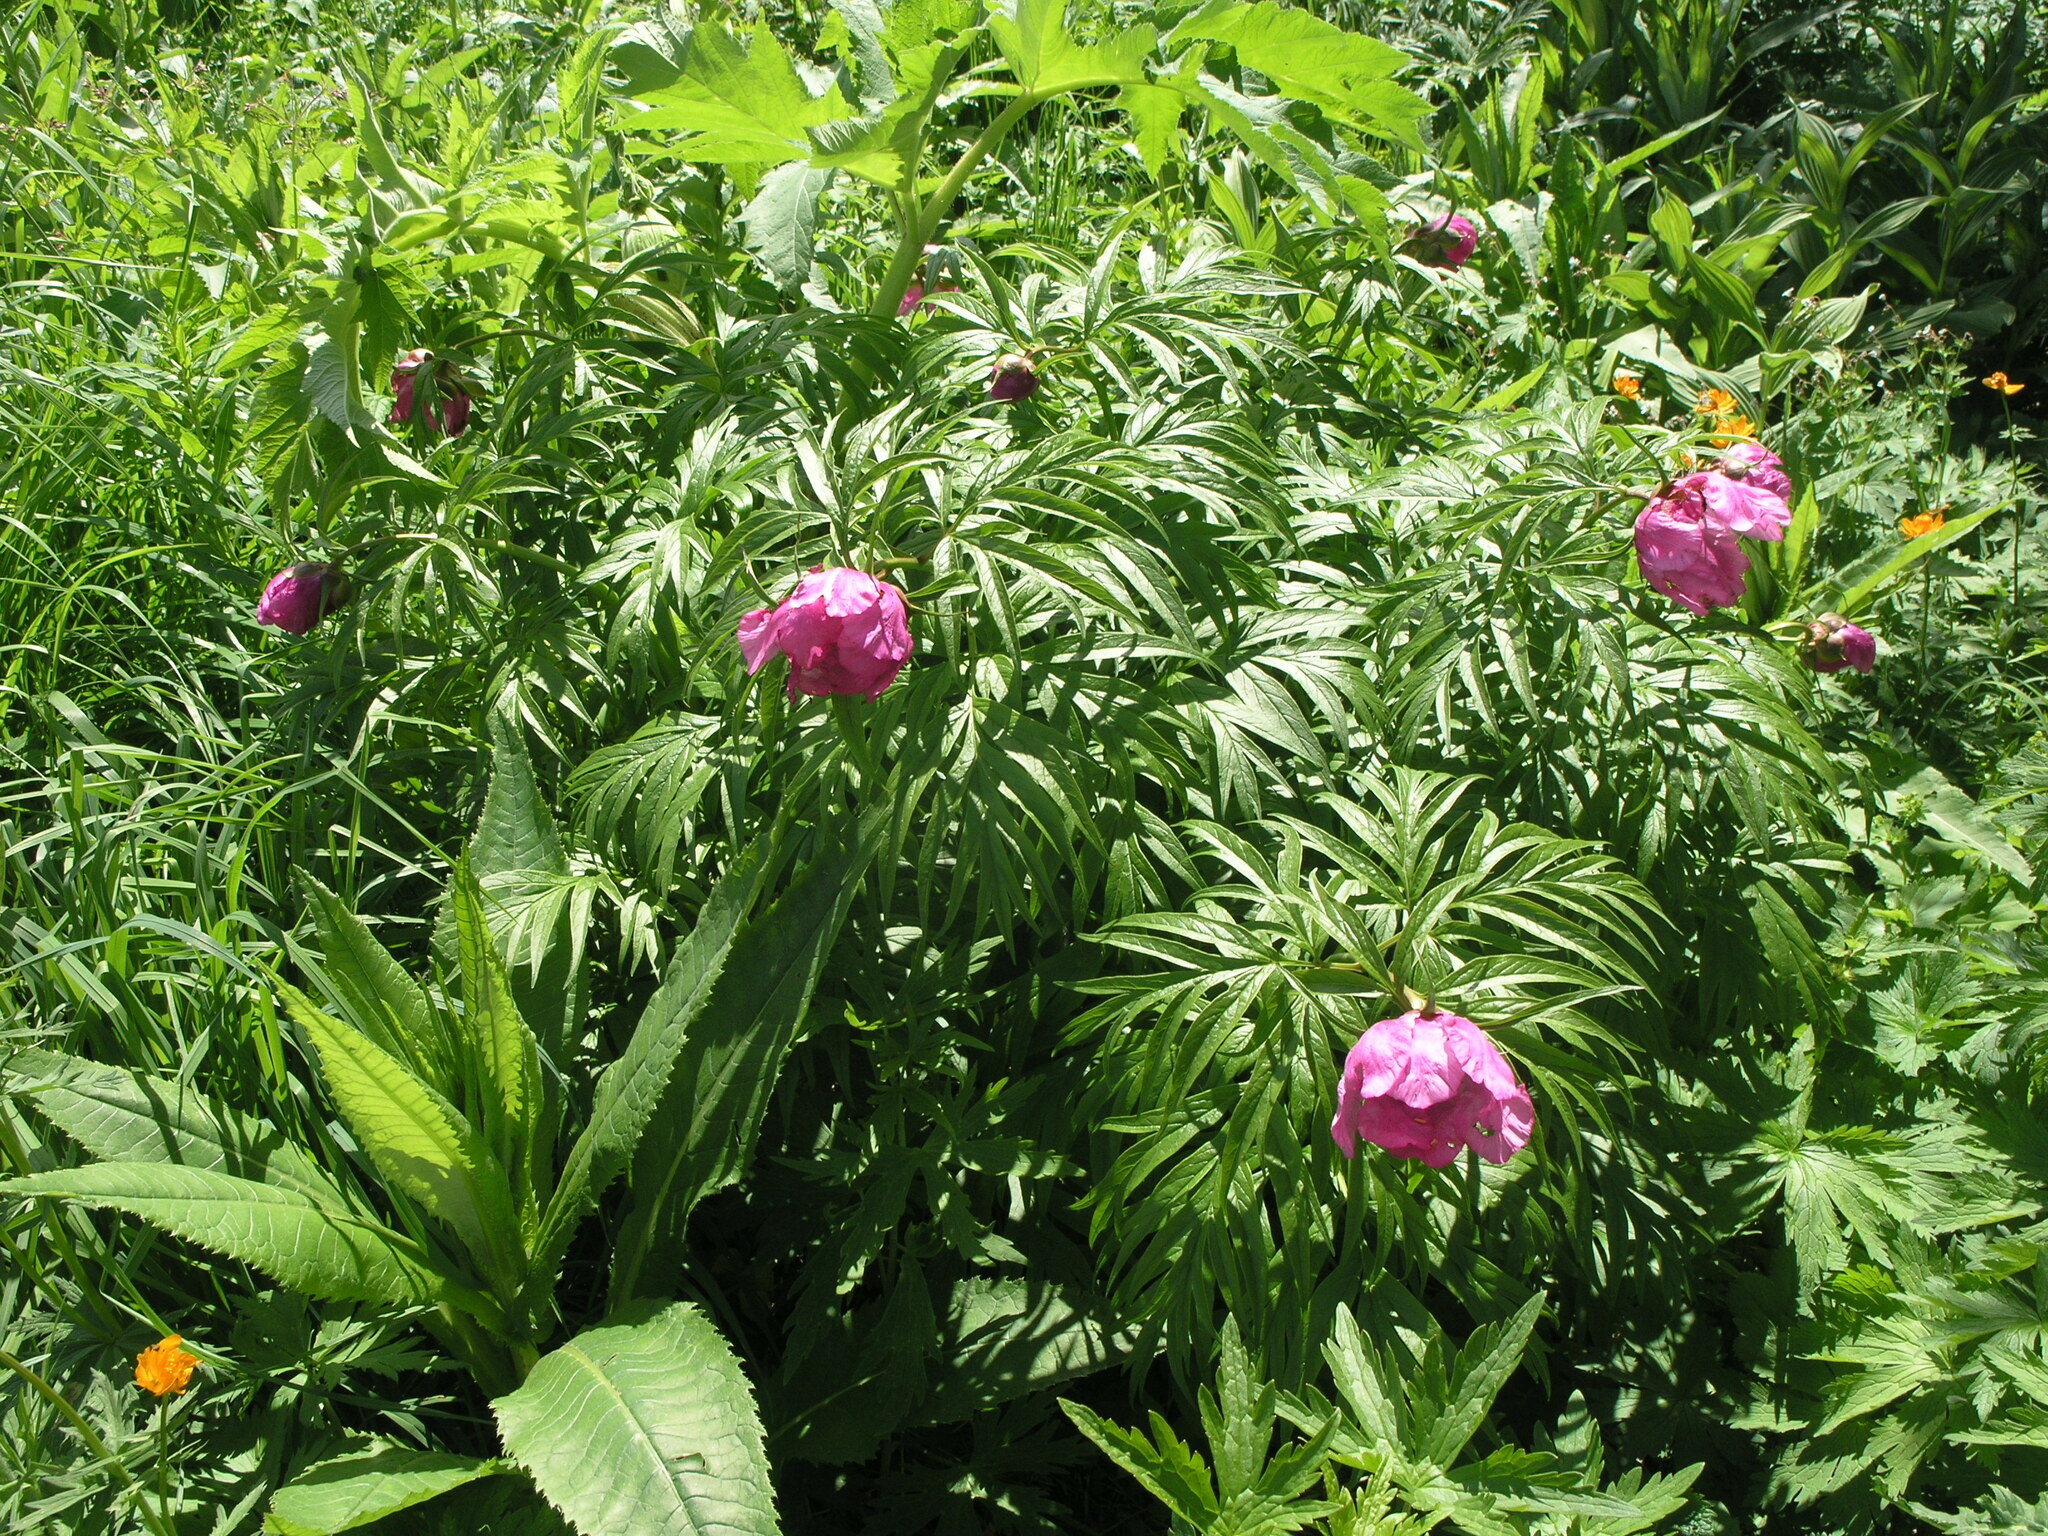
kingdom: Plantae
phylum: Tracheophyta
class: Magnoliopsida
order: Saxifragales
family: Paeoniaceae
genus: Paeonia
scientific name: Paeonia anomala
